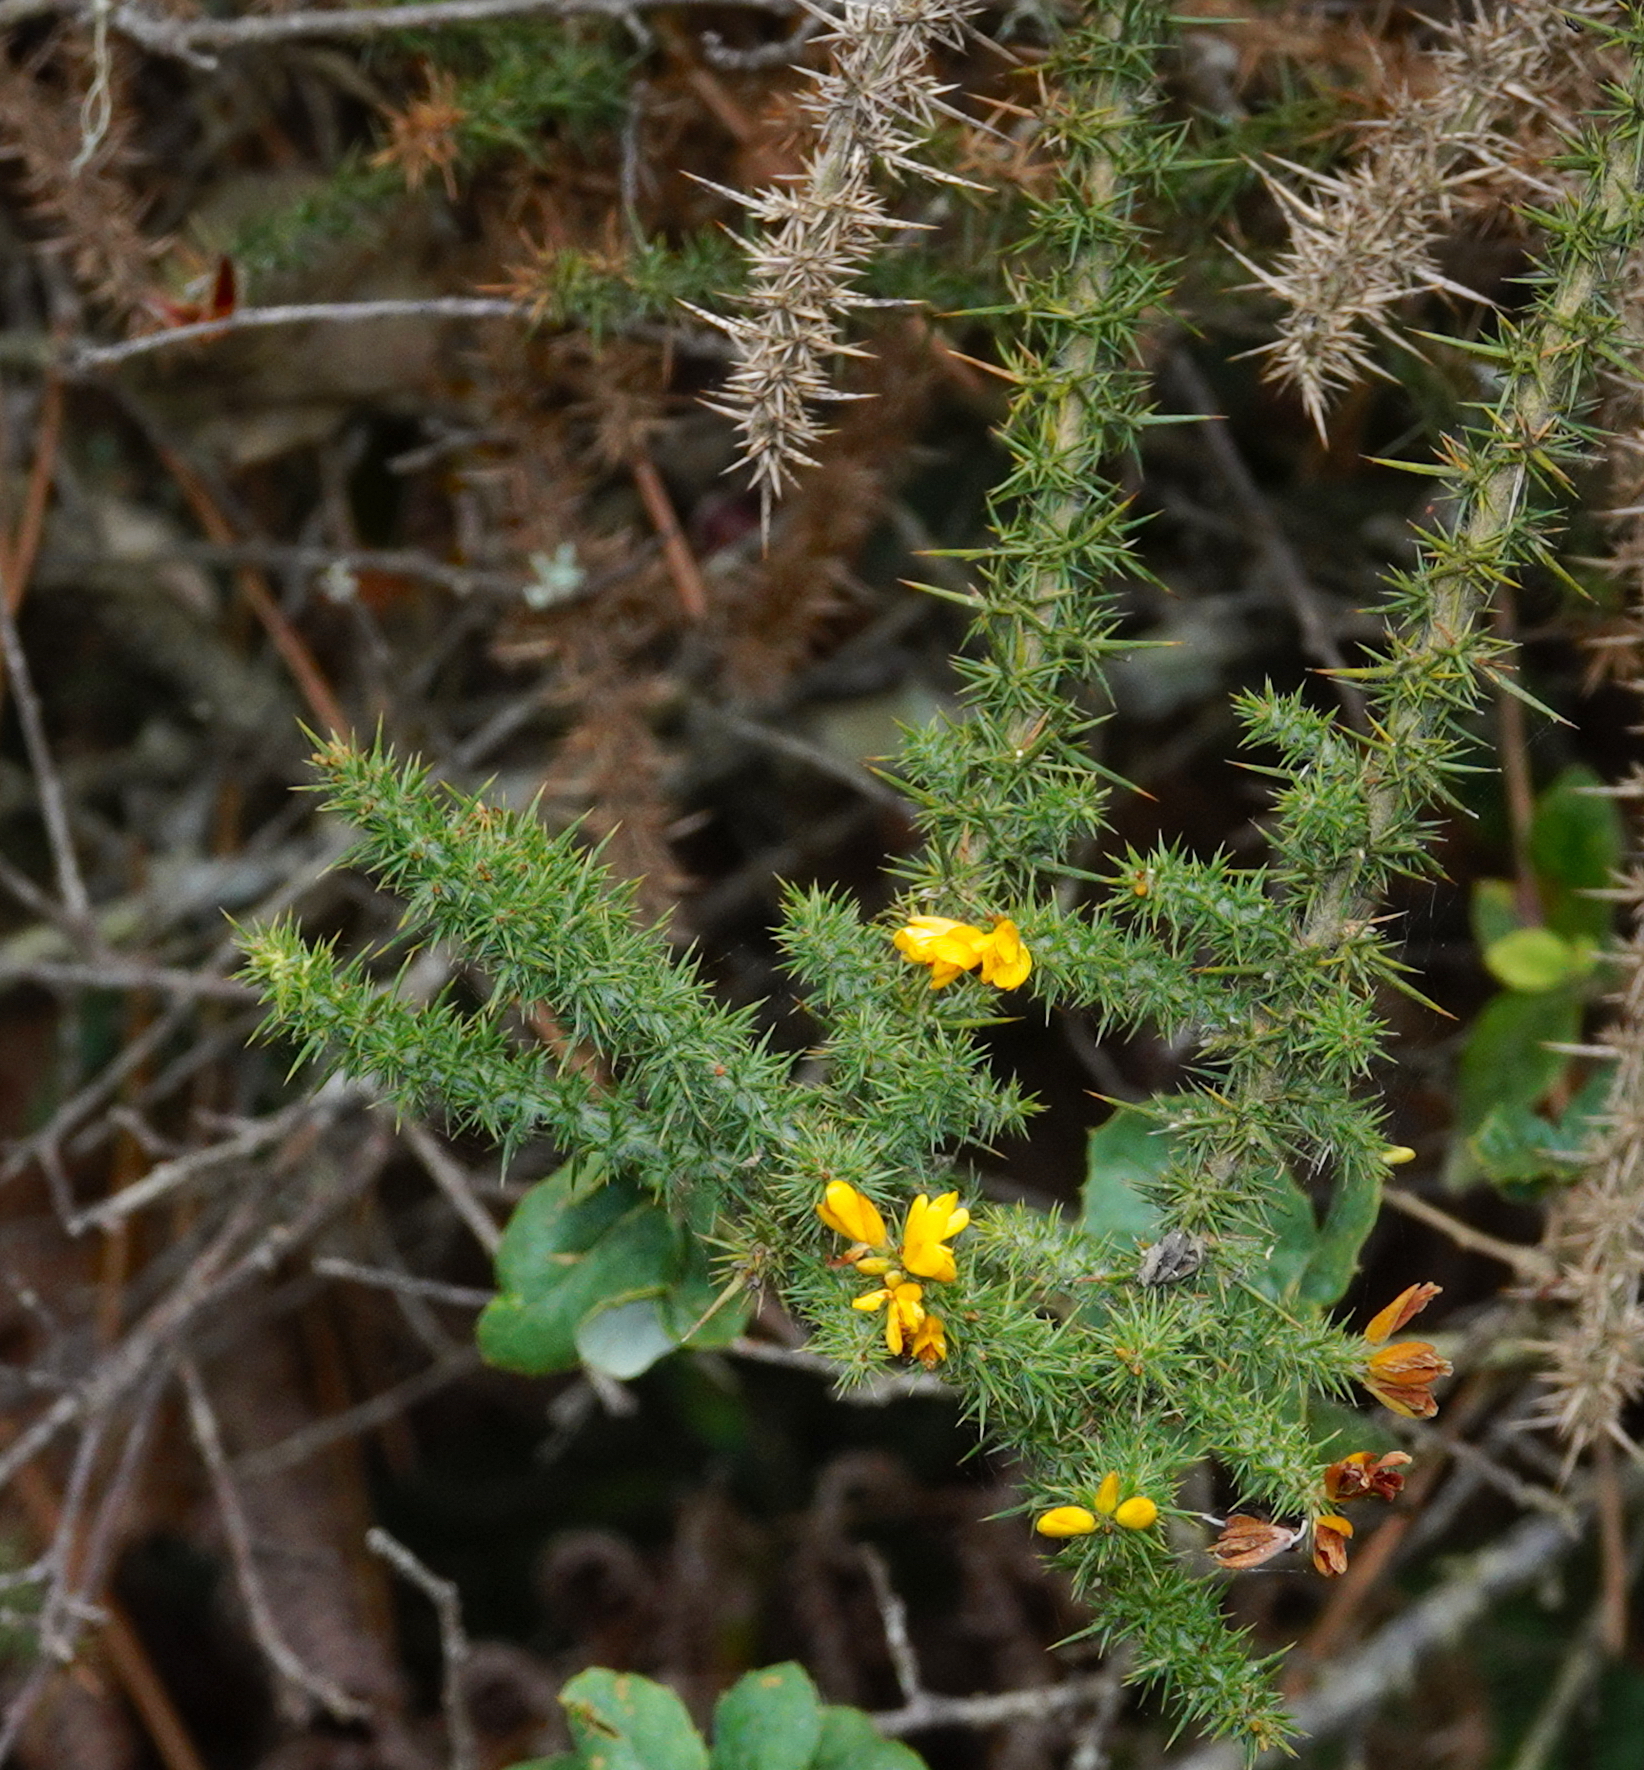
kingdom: Plantae
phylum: Tracheophyta
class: Magnoliopsida
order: Fabales
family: Fabaceae
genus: Ulex
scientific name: Ulex minor
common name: Dwarf gorse
